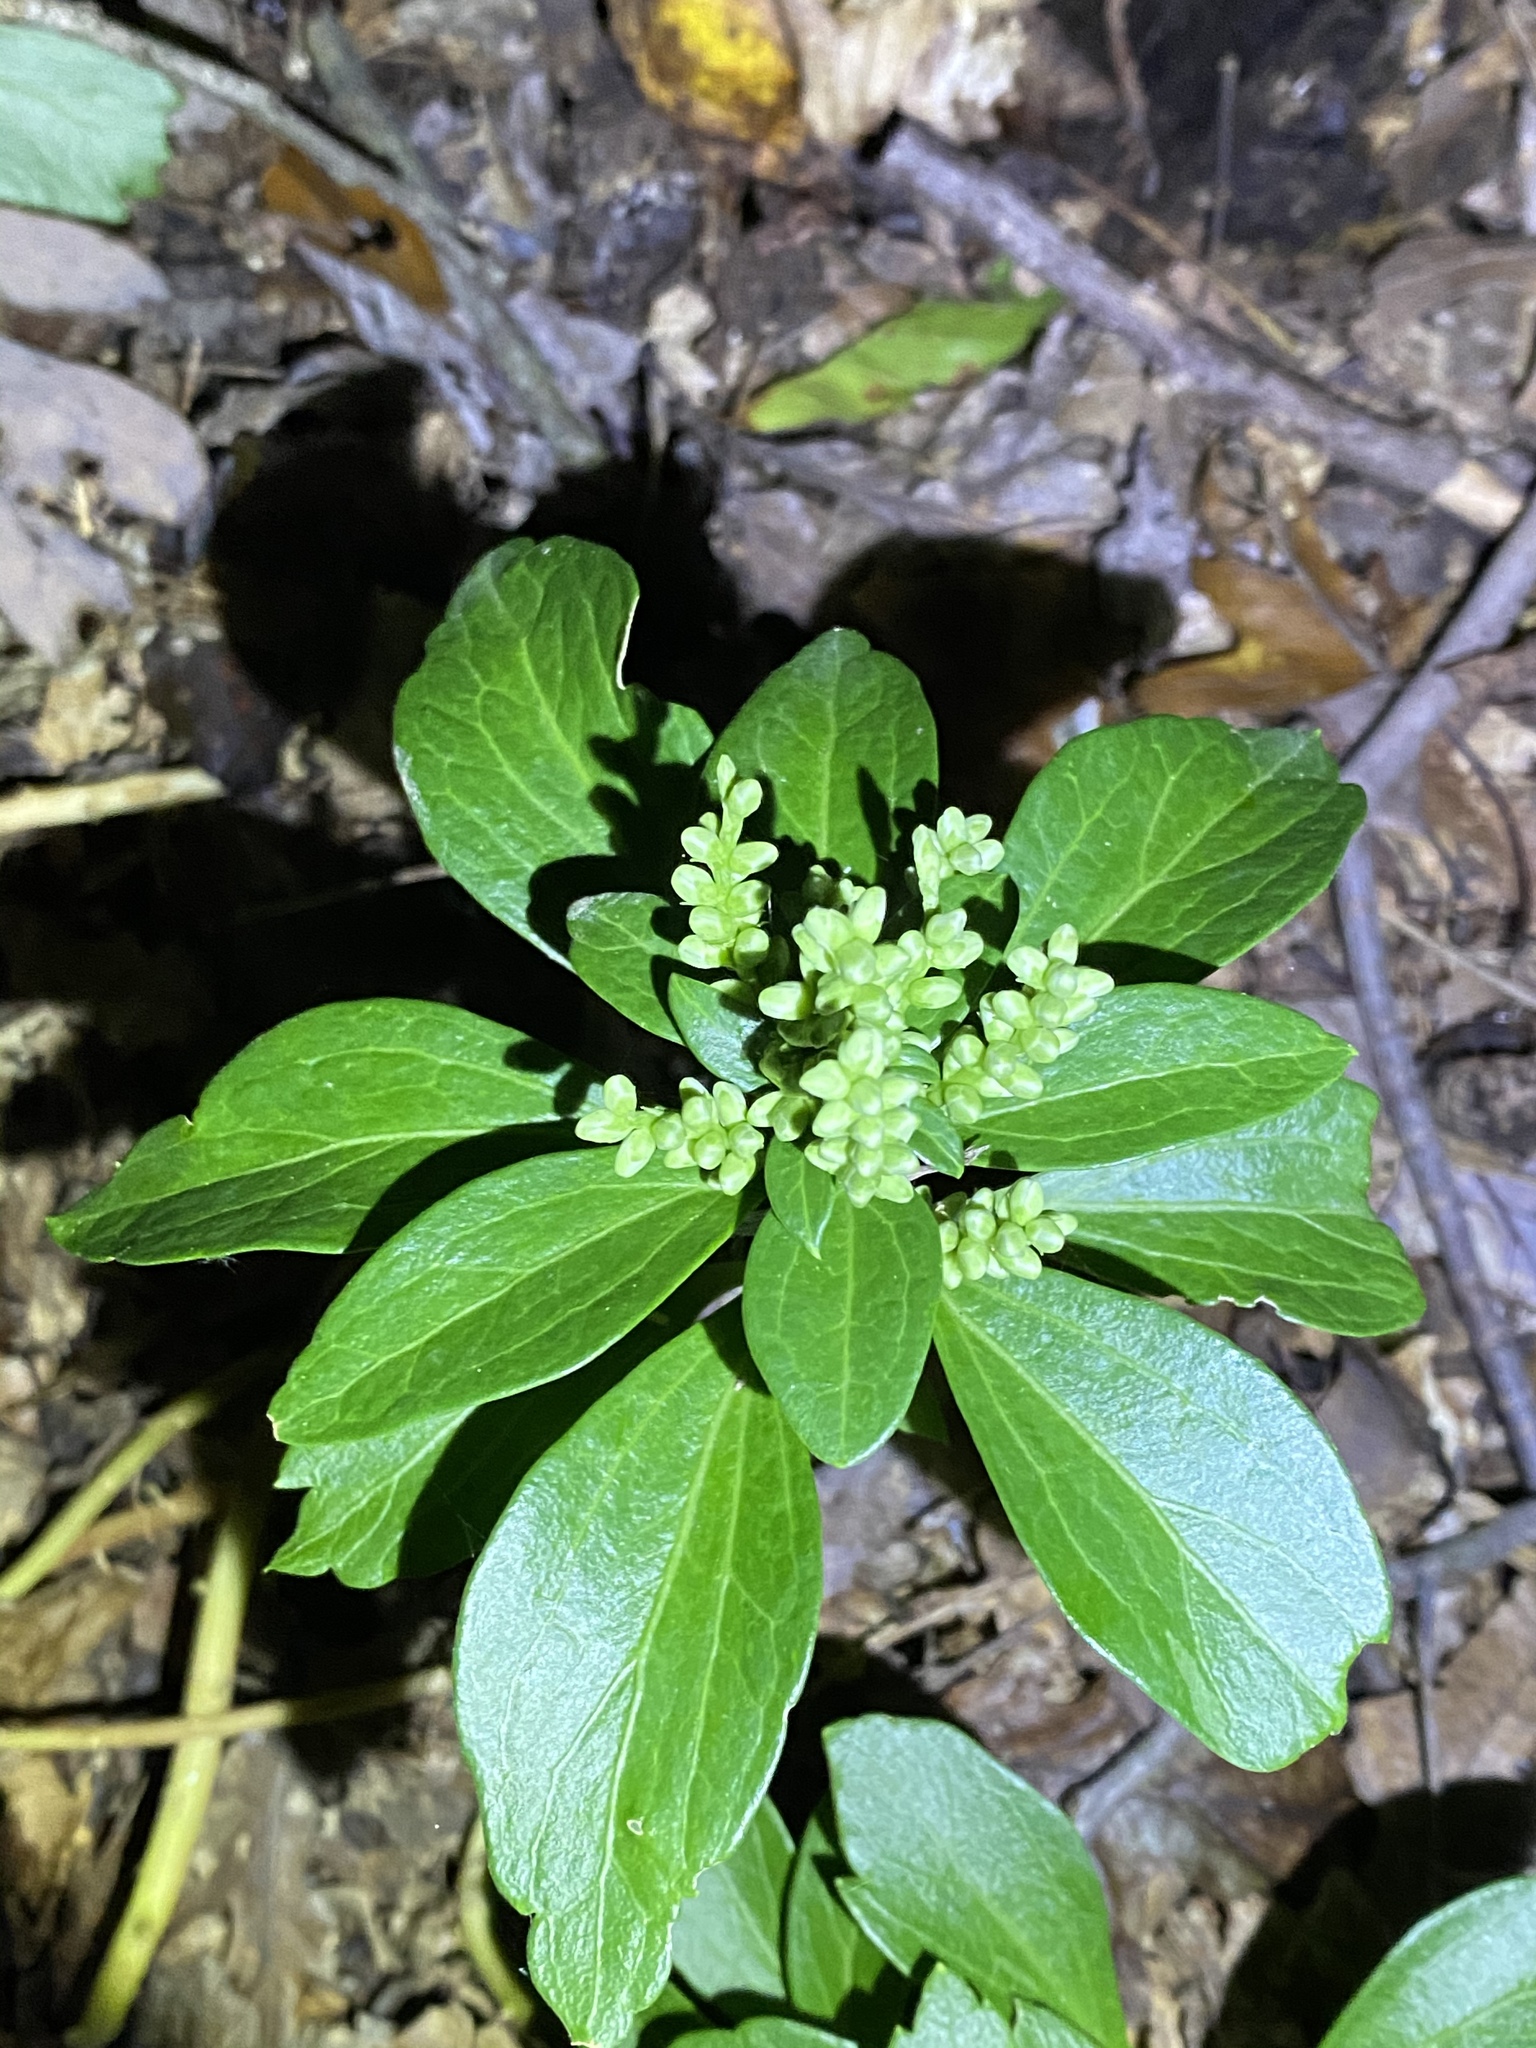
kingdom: Plantae
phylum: Tracheophyta
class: Magnoliopsida
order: Buxales
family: Buxaceae
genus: Pachysandra
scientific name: Pachysandra terminalis
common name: Japanese pachysandra
